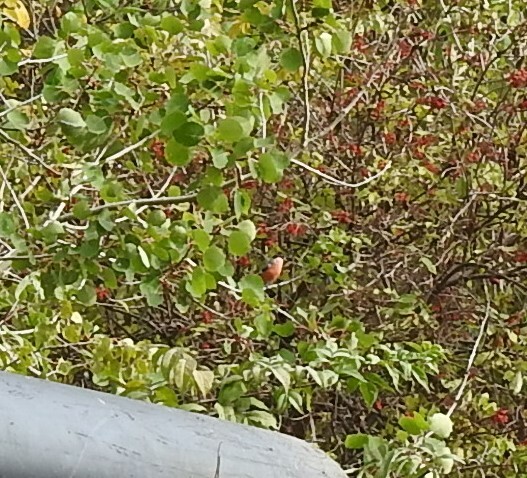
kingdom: Animalia
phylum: Chordata
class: Aves
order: Passeriformes
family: Fringillidae
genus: Pyrrhula
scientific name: Pyrrhula pyrrhula
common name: Eurasian bullfinch
